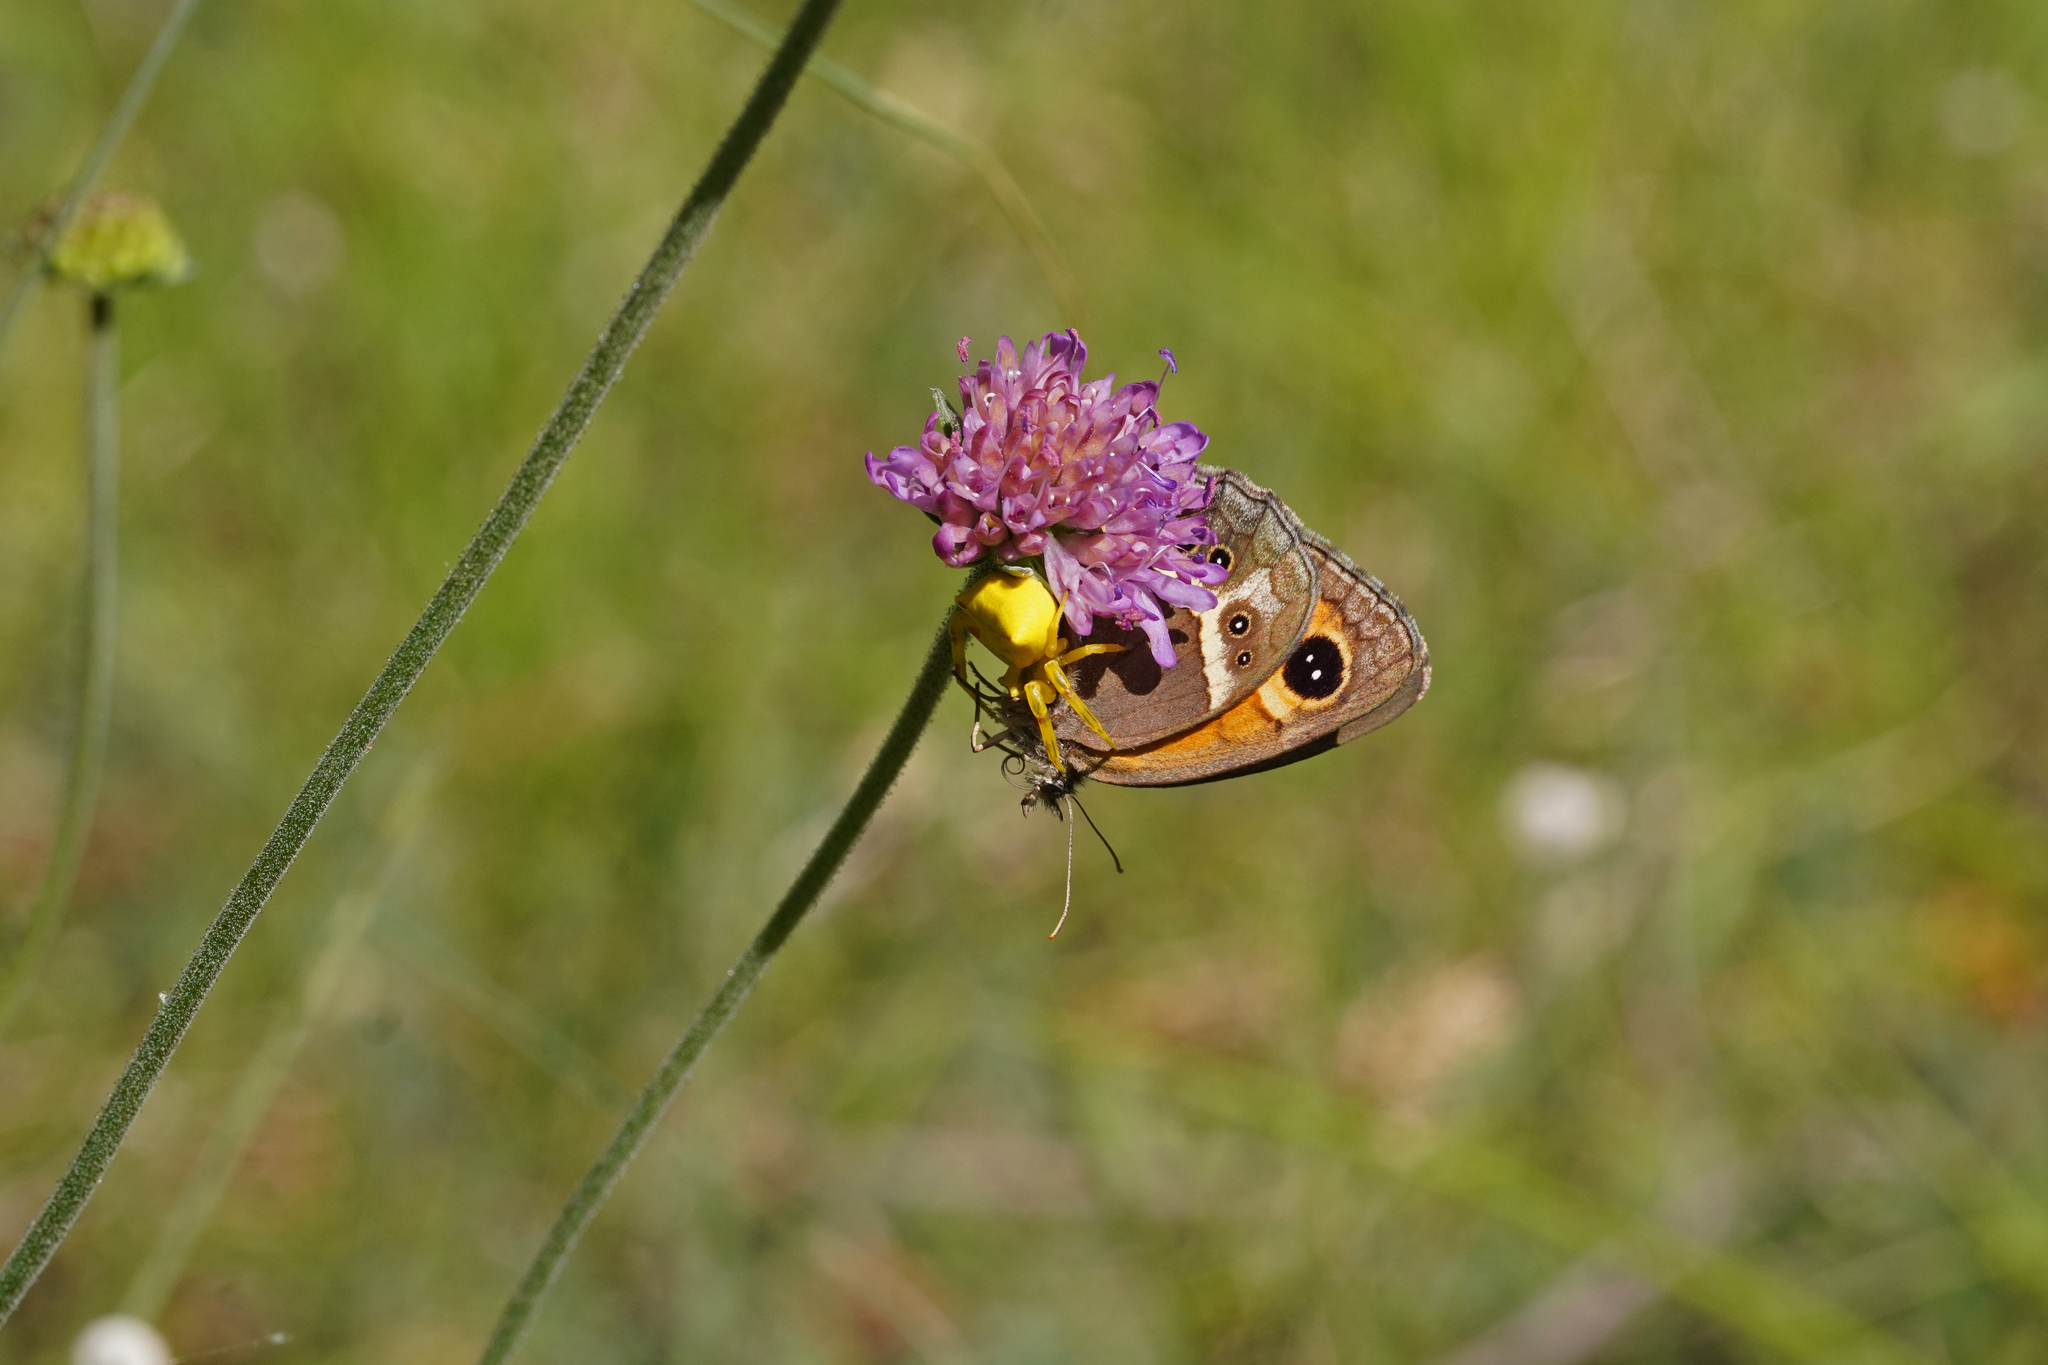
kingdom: Animalia
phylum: Arthropoda
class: Insecta
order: Lepidoptera
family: Nymphalidae
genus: Pyronia
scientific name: Pyronia bathseba
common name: Spanish gatekeeper
